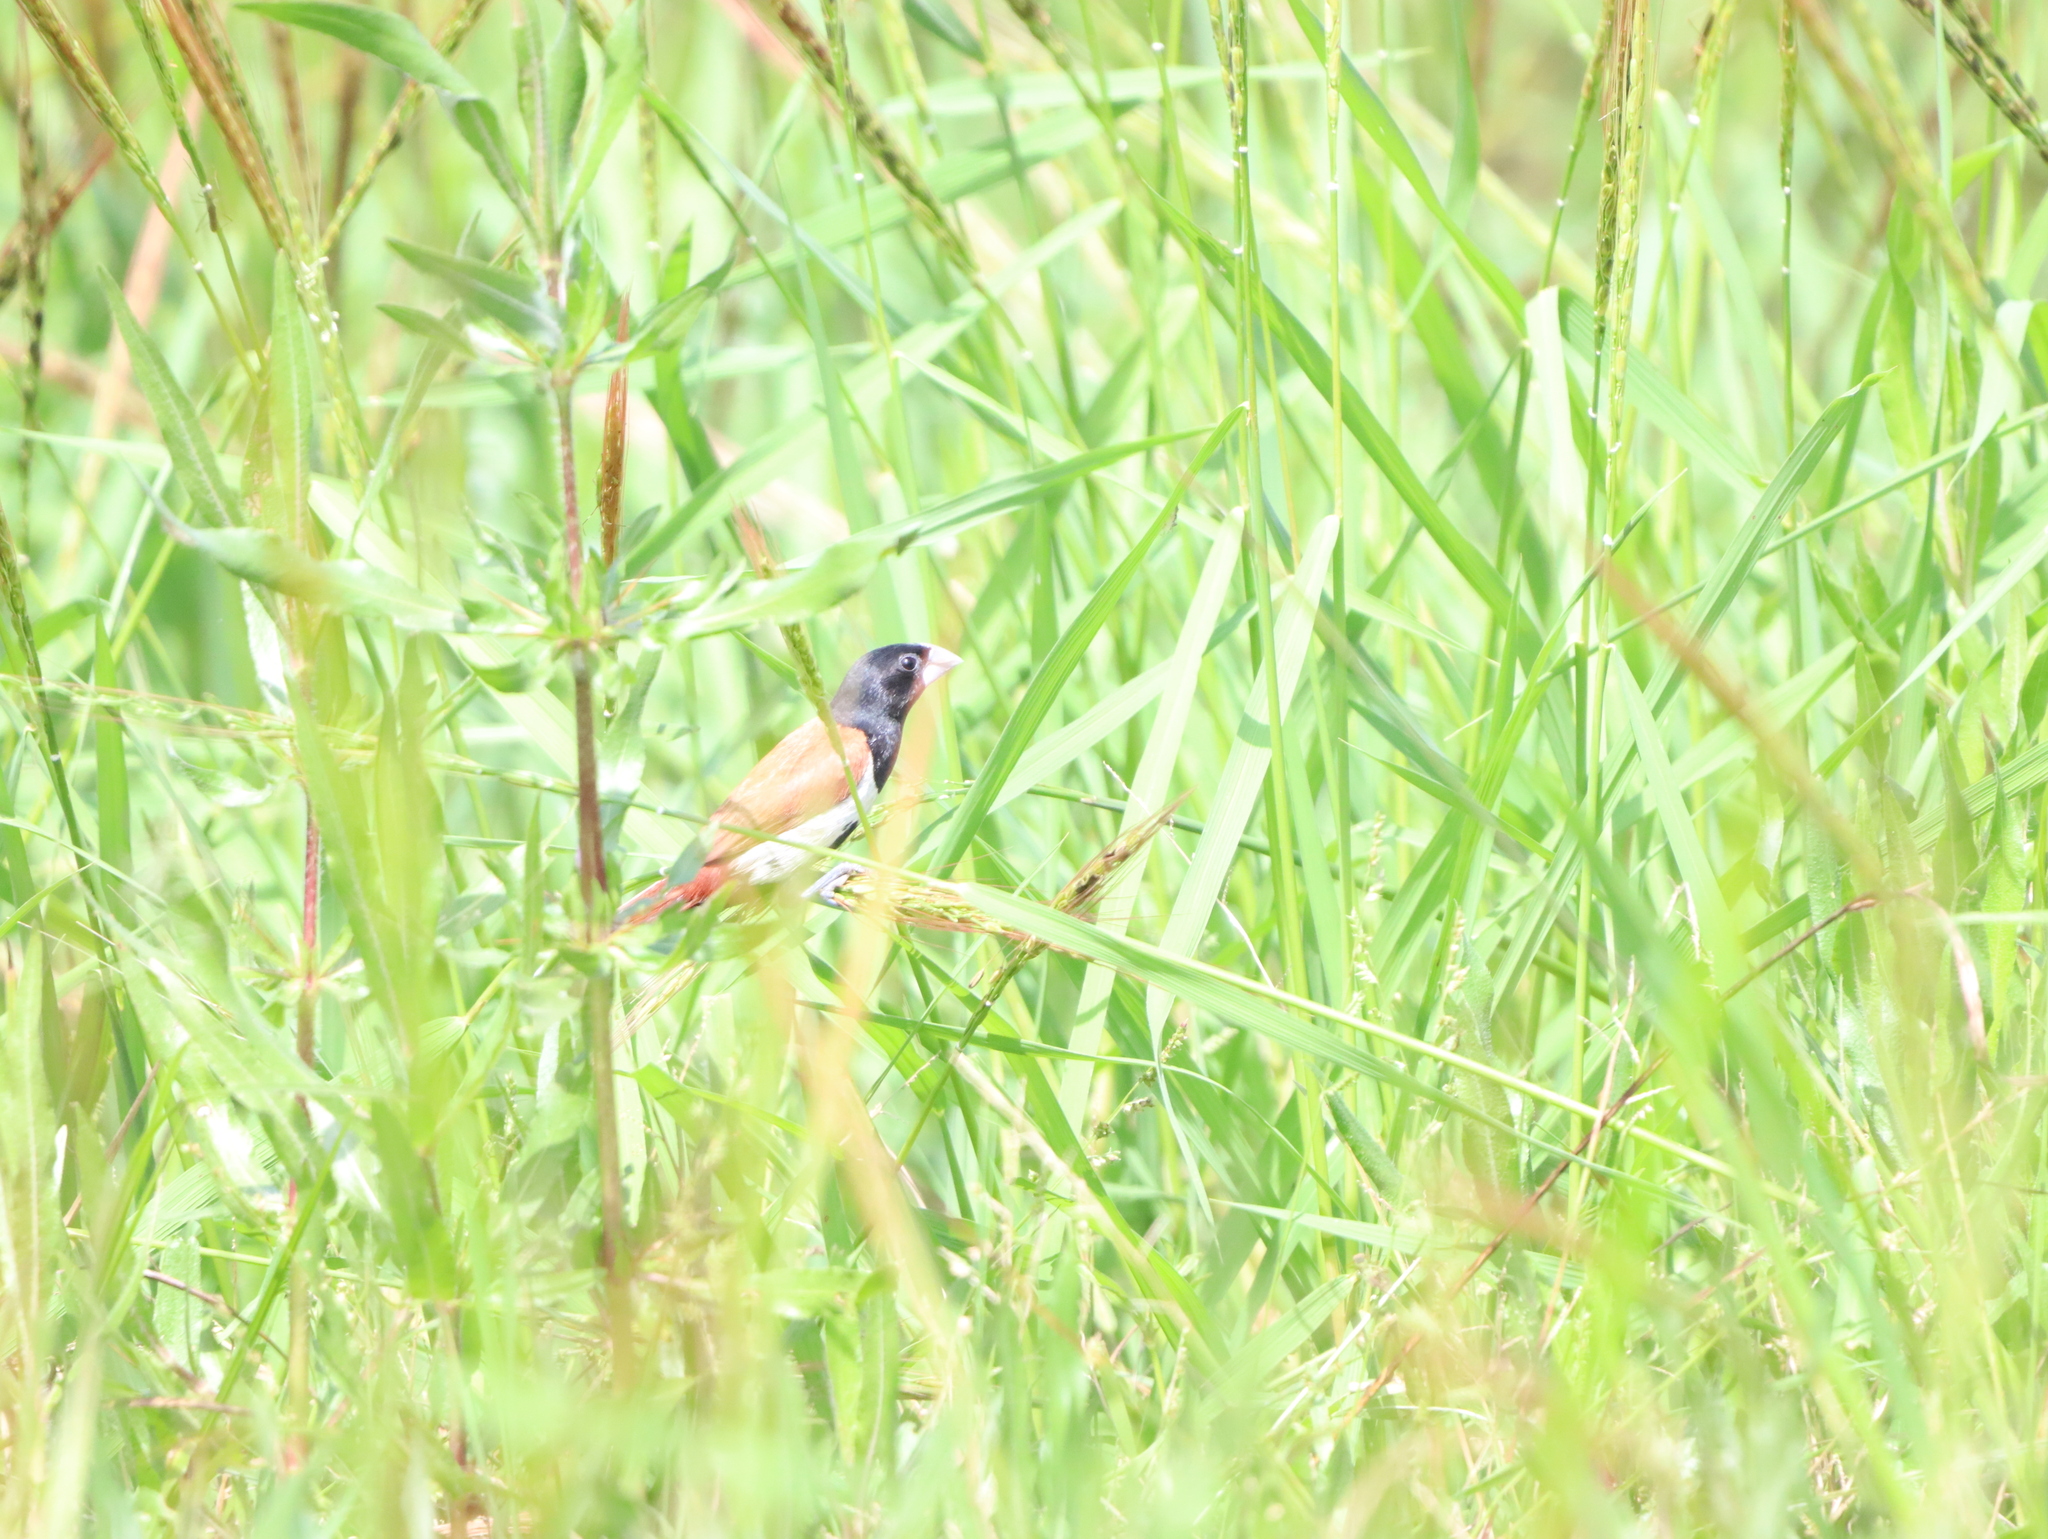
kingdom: Animalia
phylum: Chordata
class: Aves
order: Passeriformes
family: Estrildidae
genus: Lonchura
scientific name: Lonchura malacca
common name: Tricolored munia
